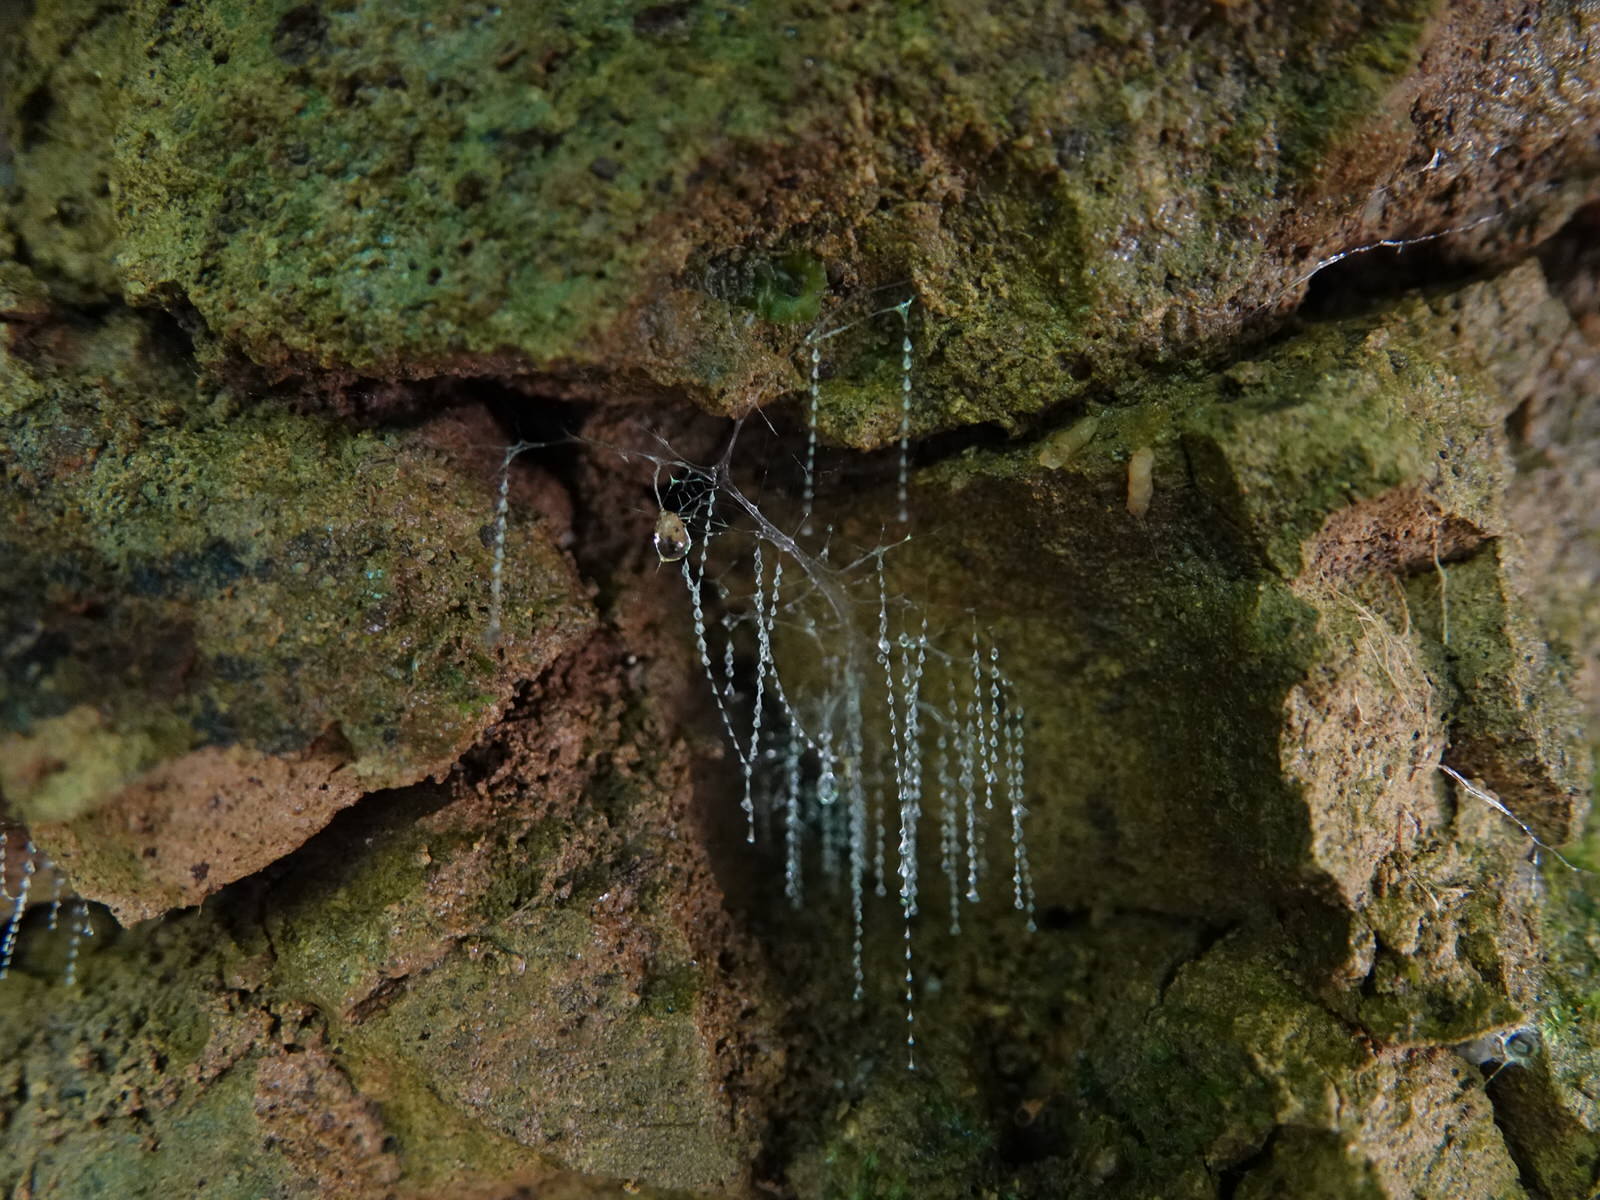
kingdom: Animalia
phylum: Arthropoda
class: Insecta
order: Diptera
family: Keroplatidae
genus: Arachnocampa
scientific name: Arachnocampa luminosa
